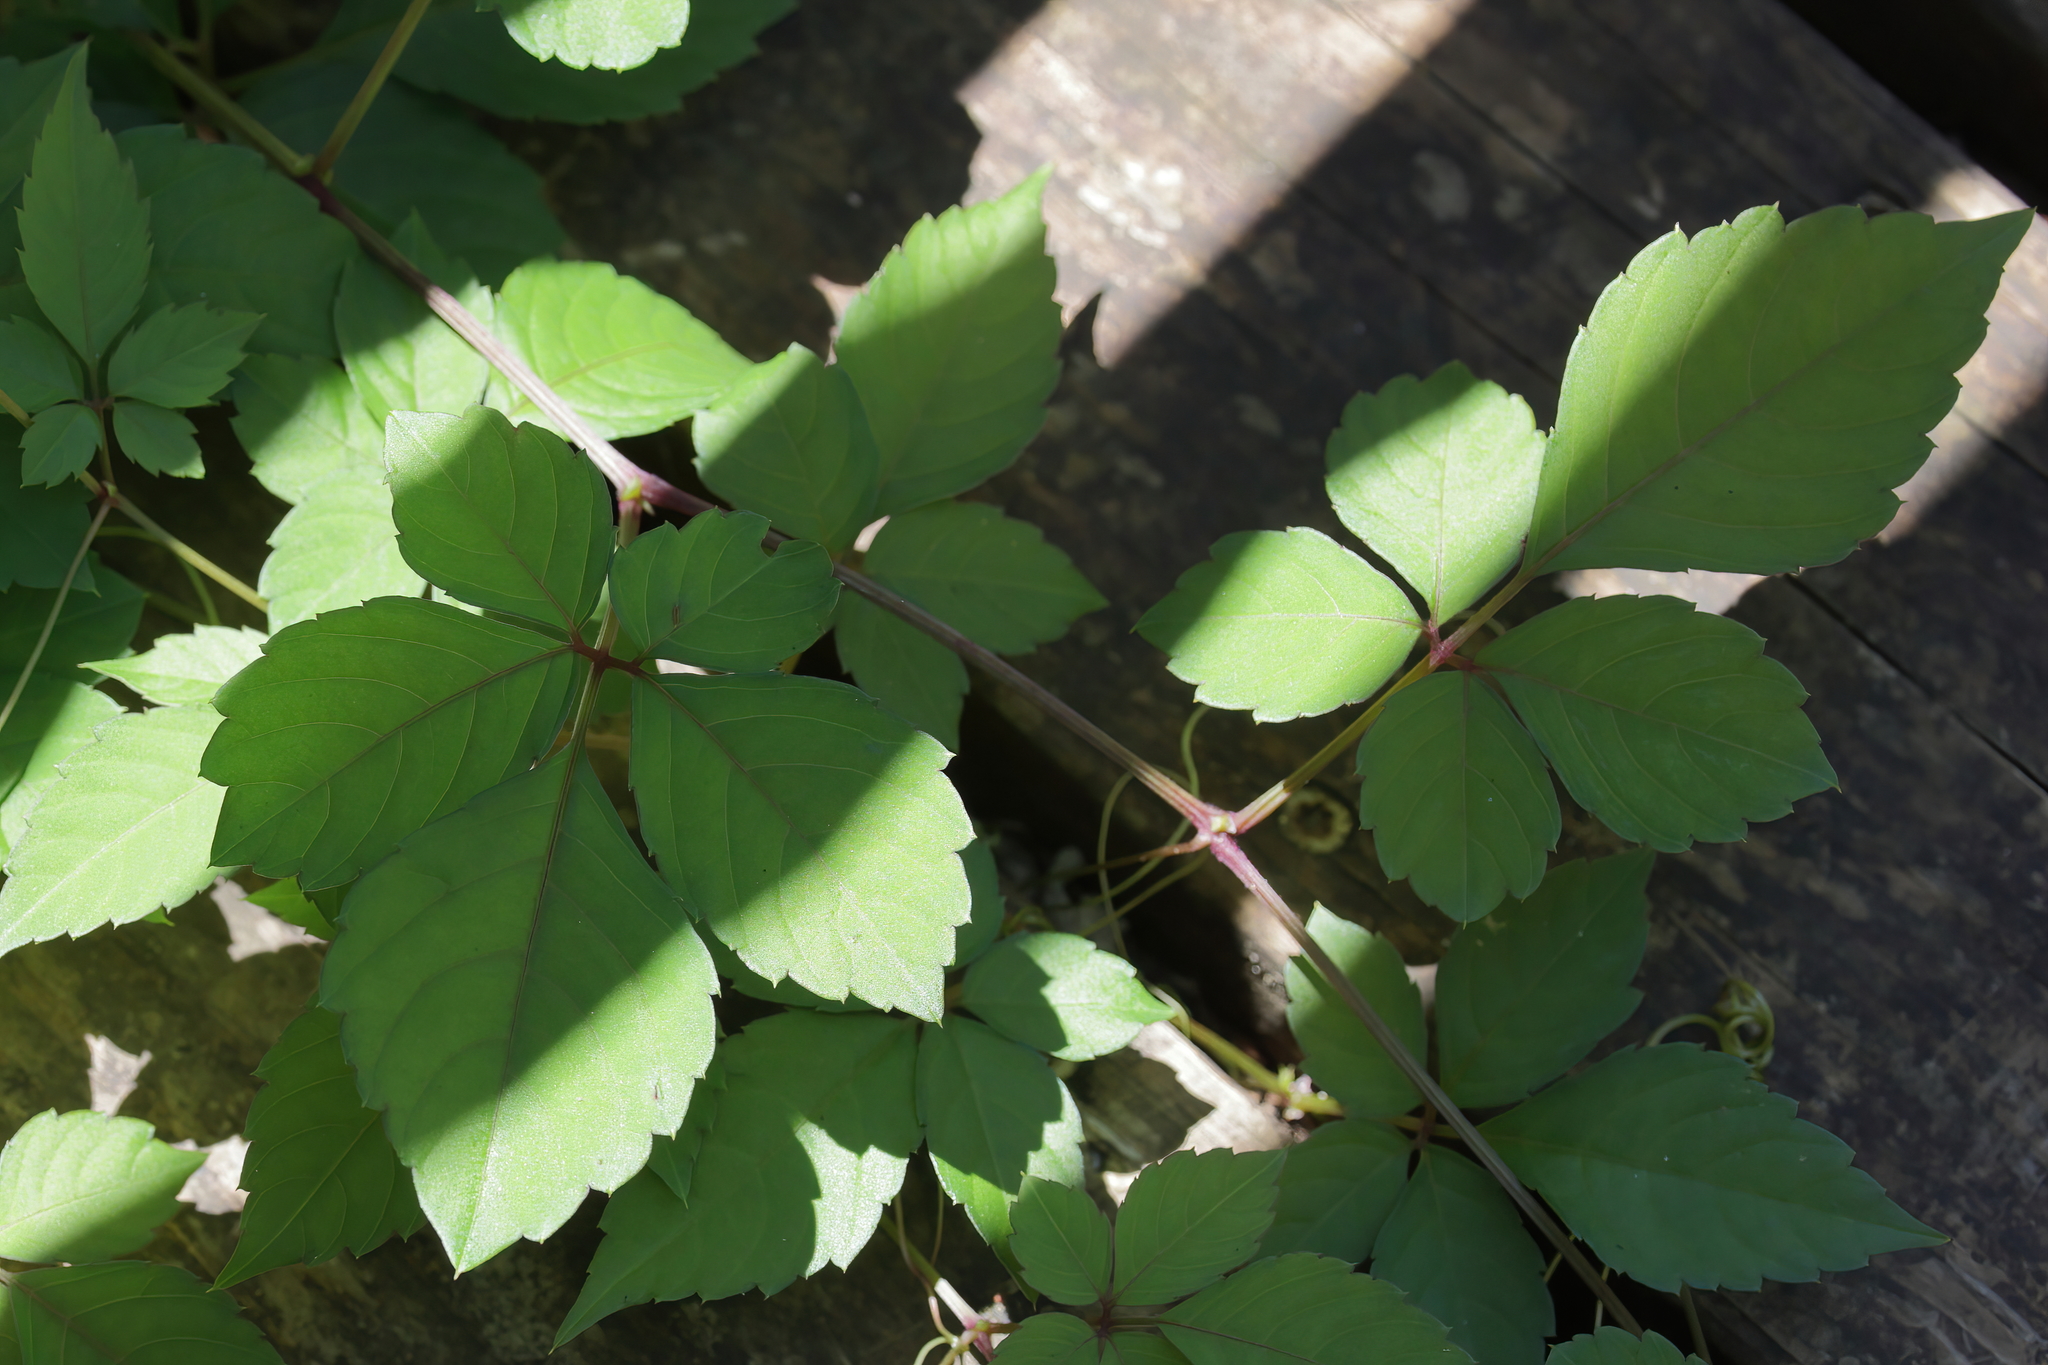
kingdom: Plantae
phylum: Tracheophyta
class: Magnoliopsida
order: Vitales
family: Vitaceae
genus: Causonis
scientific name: Causonis japonica
